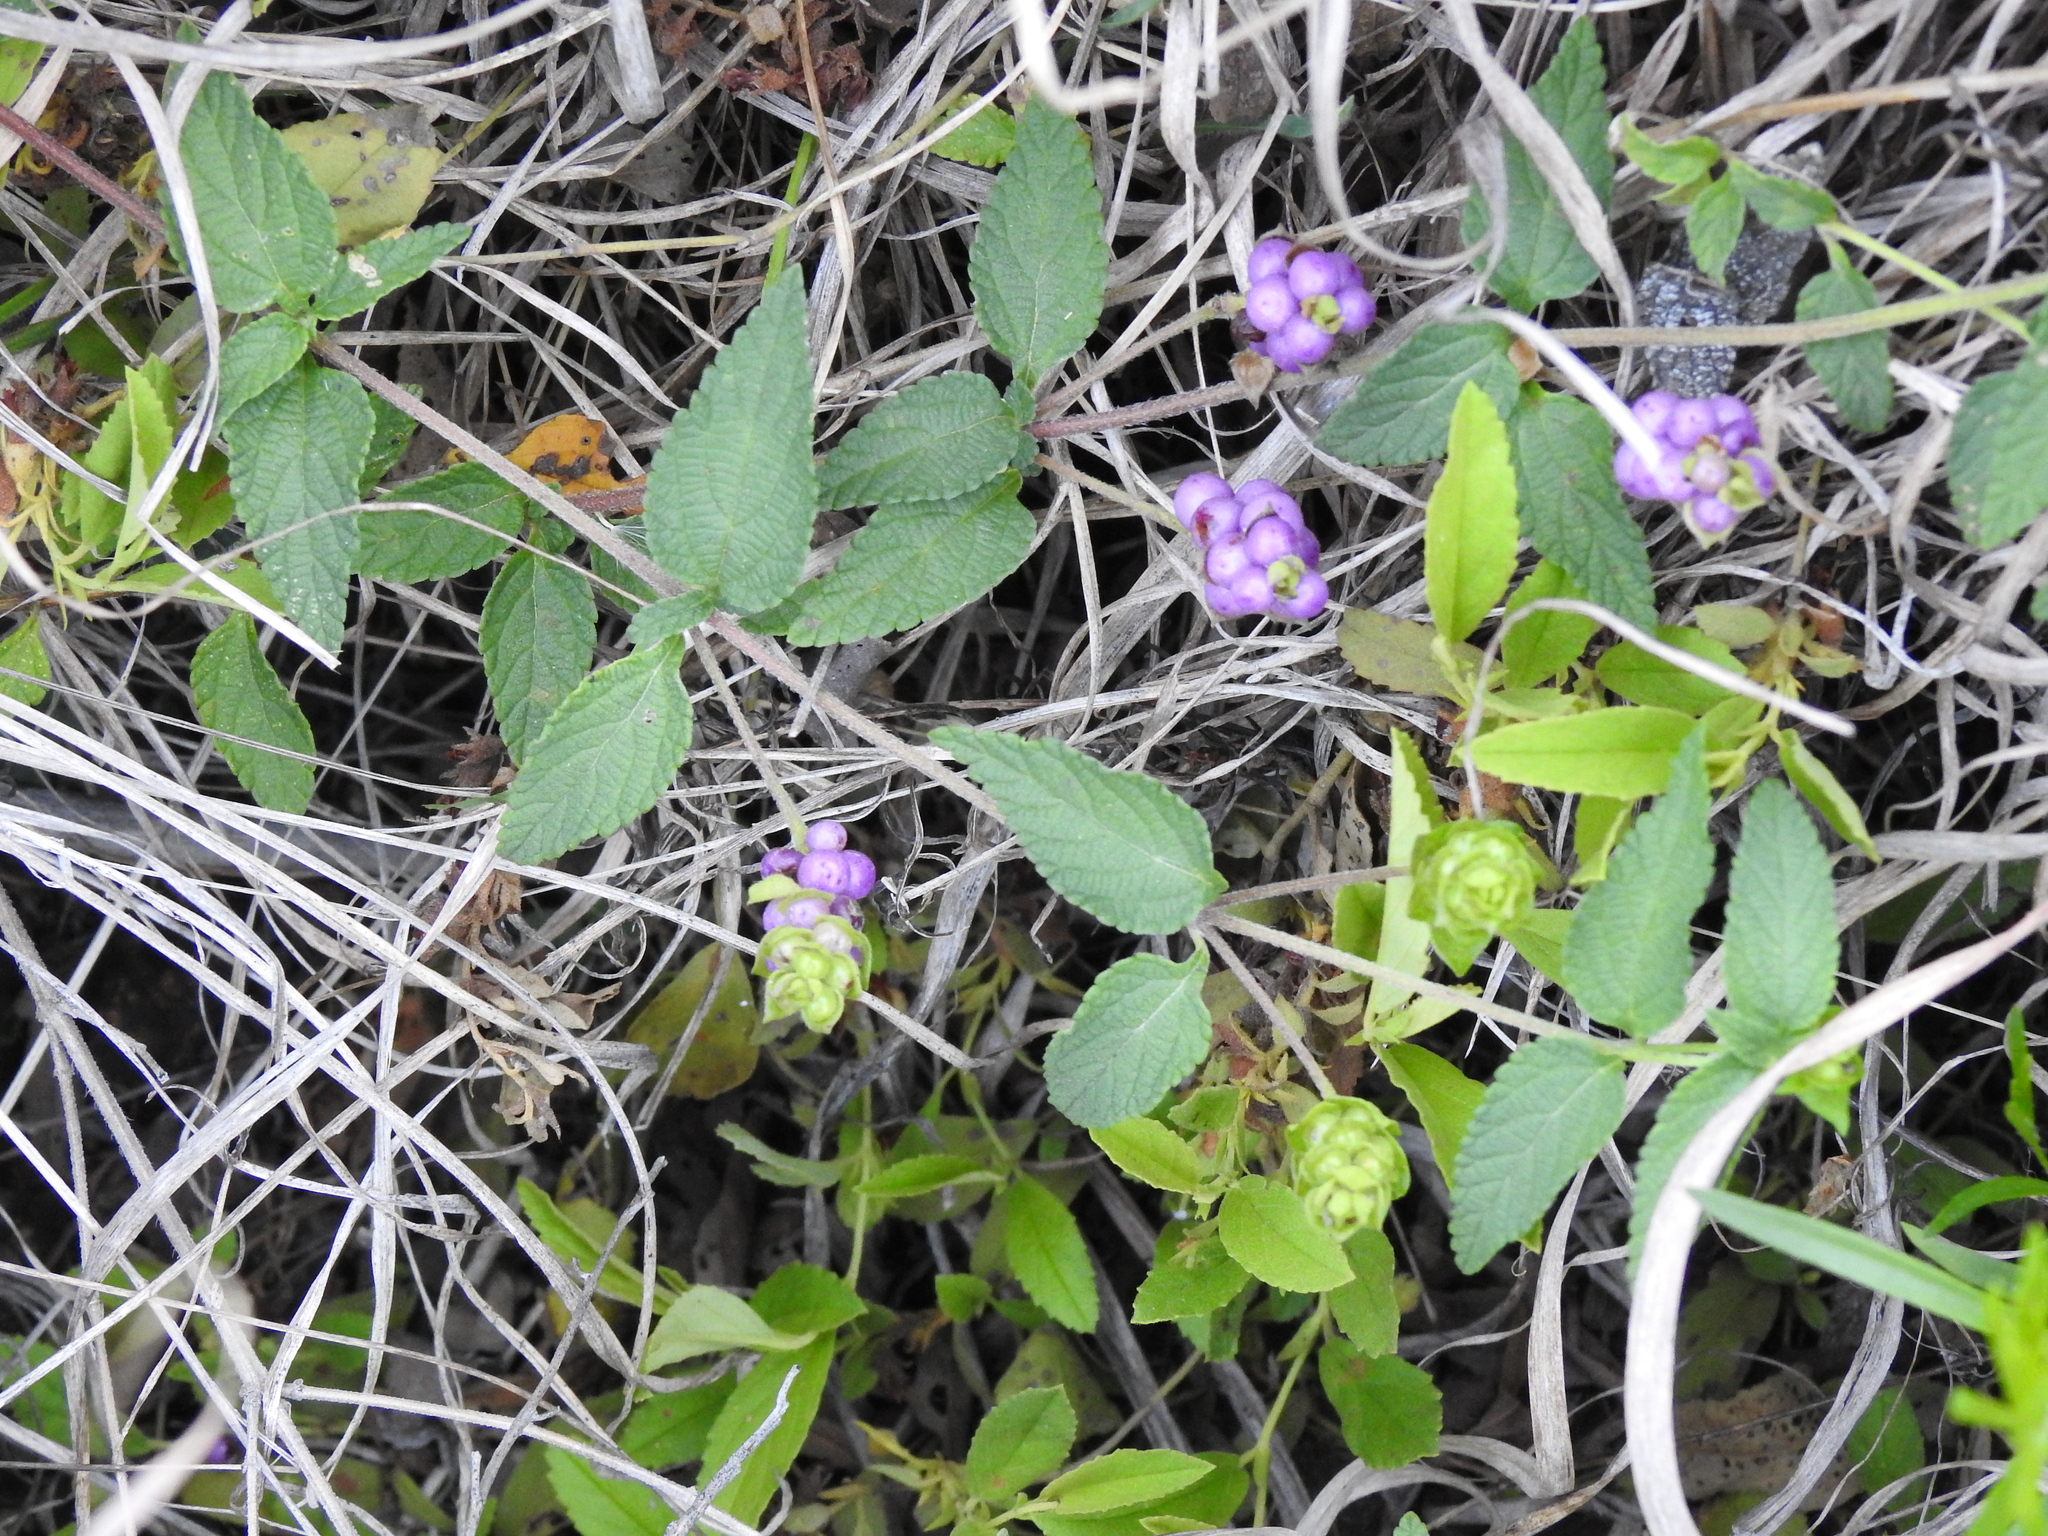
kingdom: Plantae
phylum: Tracheophyta
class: Magnoliopsida
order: Lamiales
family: Verbenaceae
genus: Lantana
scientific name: Lantana rugosa
